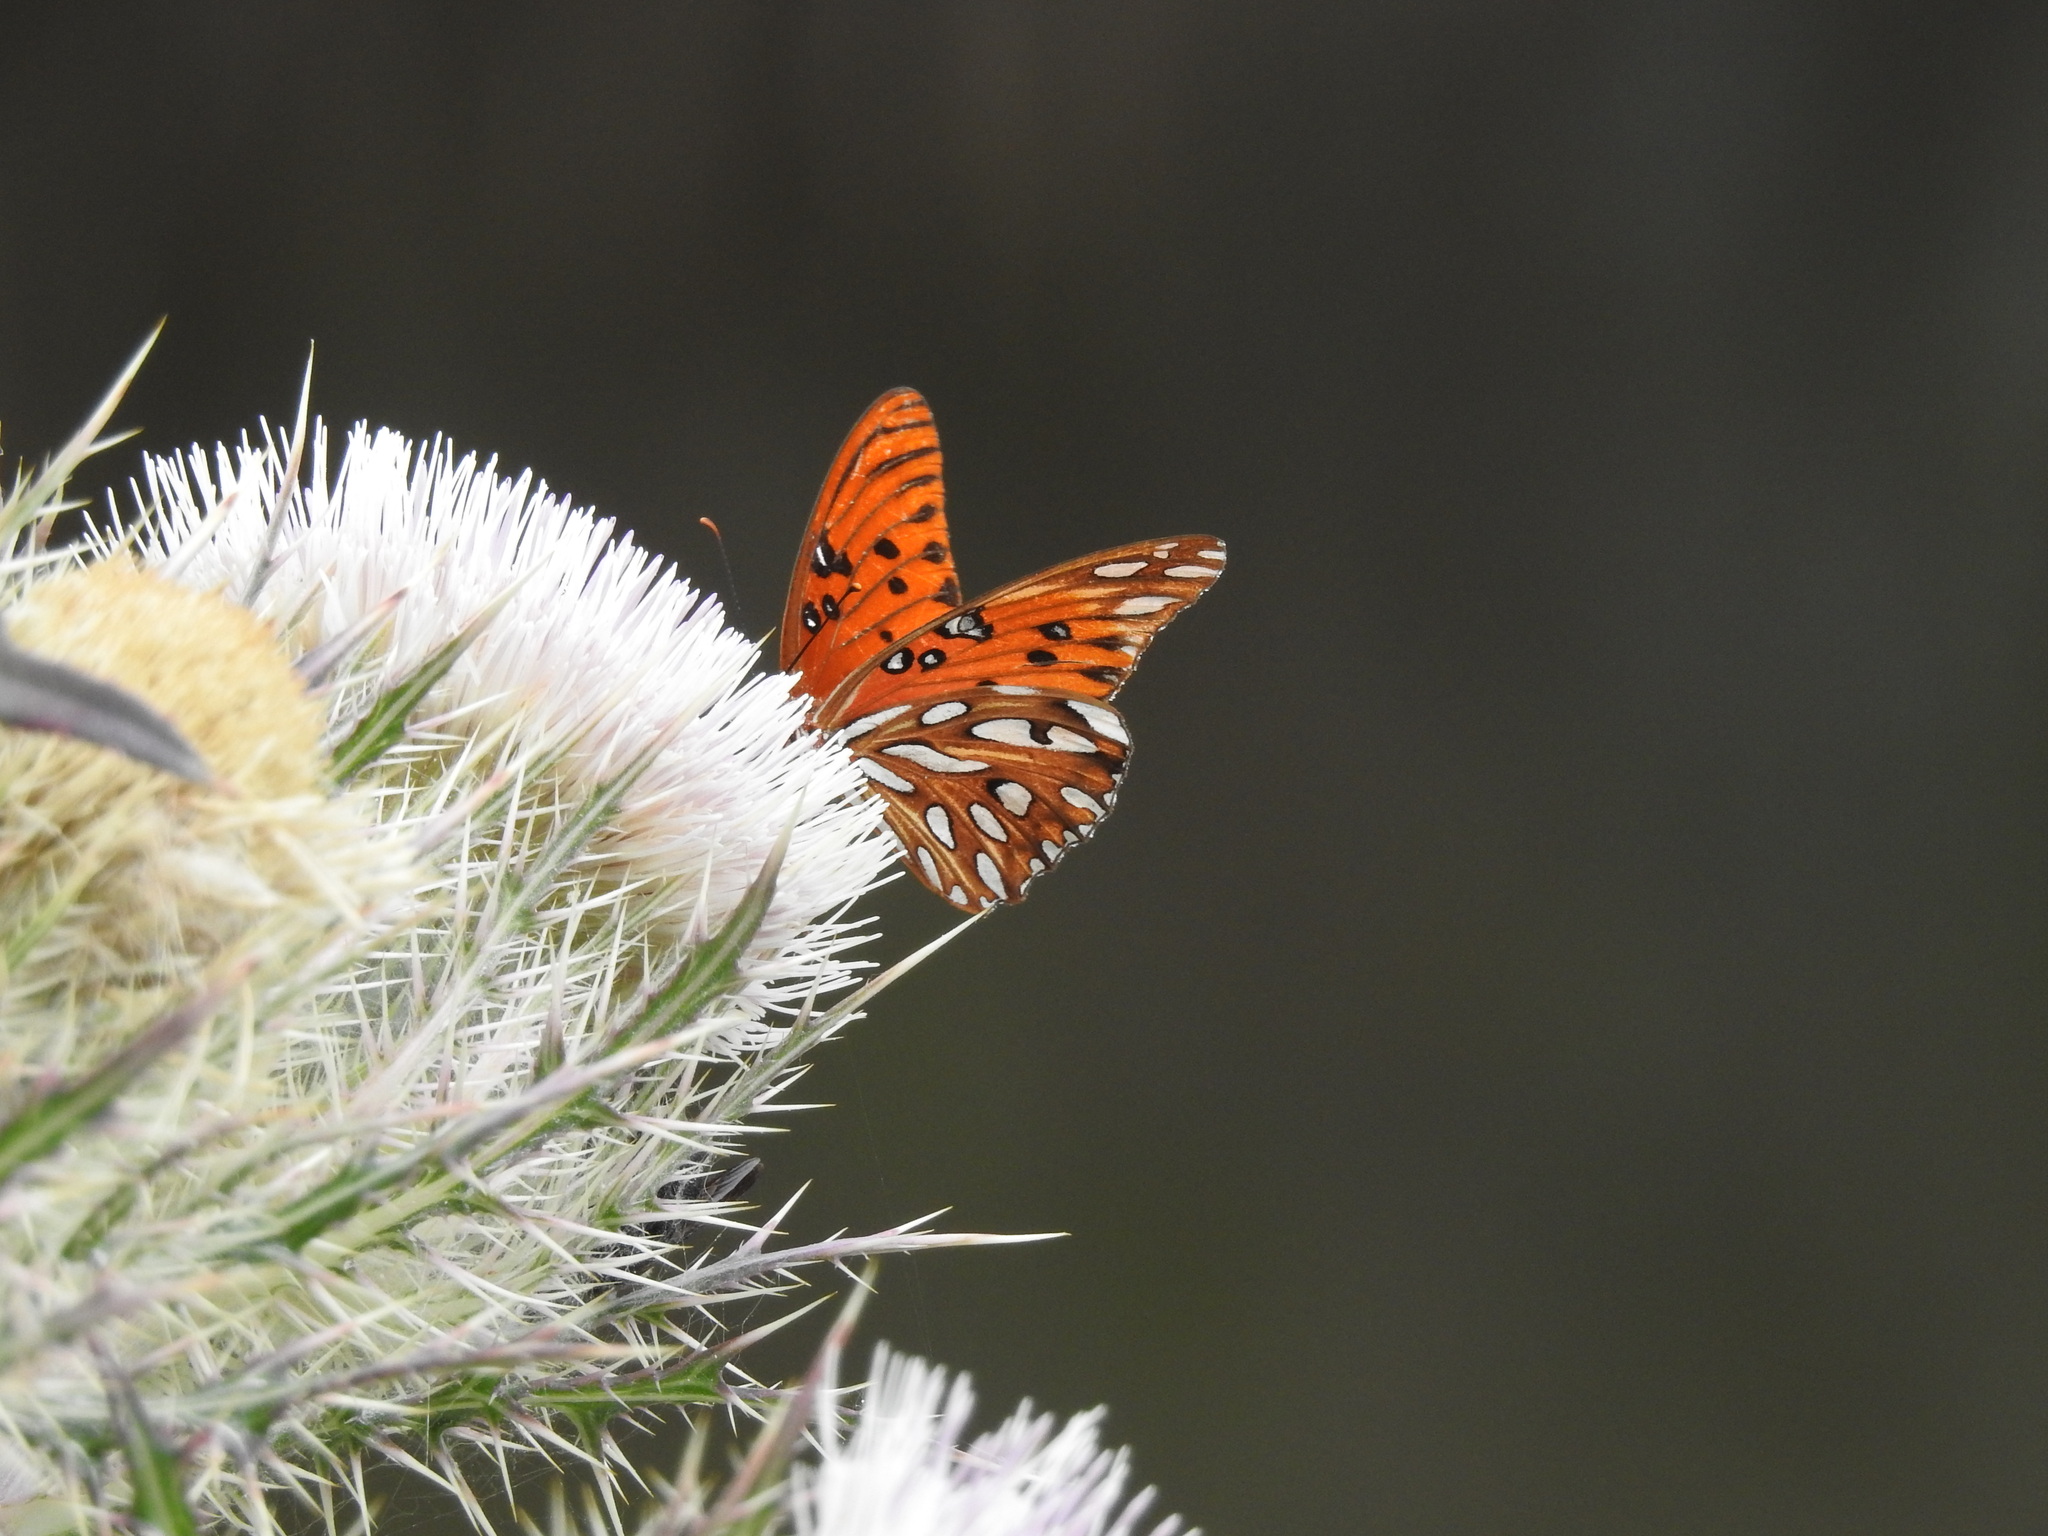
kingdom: Animalia
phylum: Arthropoda
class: Insecta
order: Lepidoptera
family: Nymphalidae
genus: Dione
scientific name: Dione vanillae
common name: Gulf fritillary
